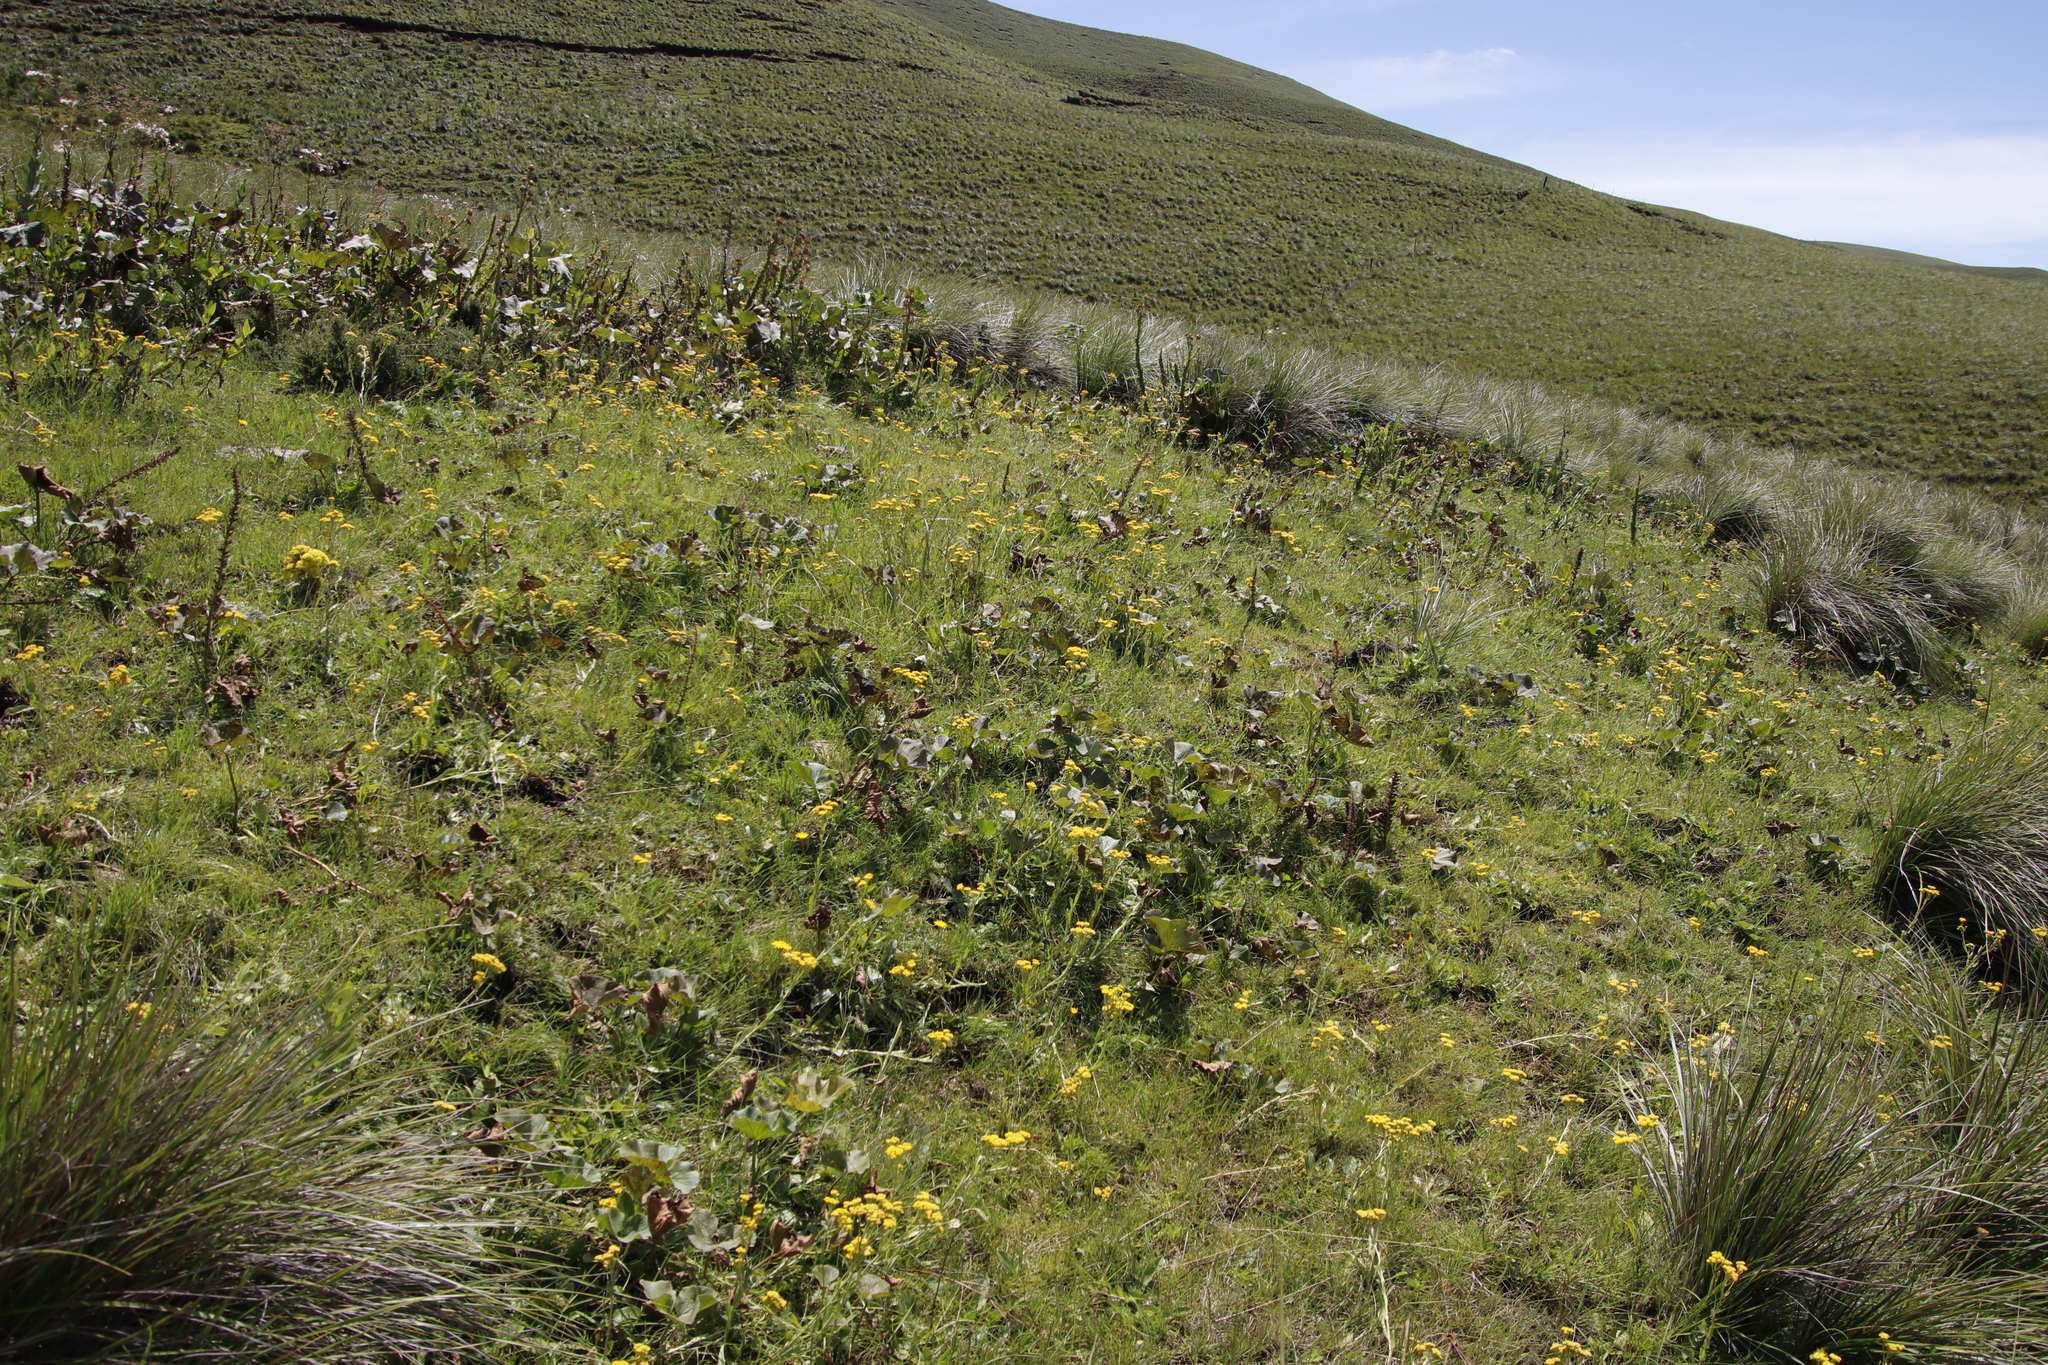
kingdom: Plantae
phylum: Tracheophyta
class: Magnoliopsida
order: Gunnerales
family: Gunneraceae
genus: Gunnera
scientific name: Gunnera perpensa
